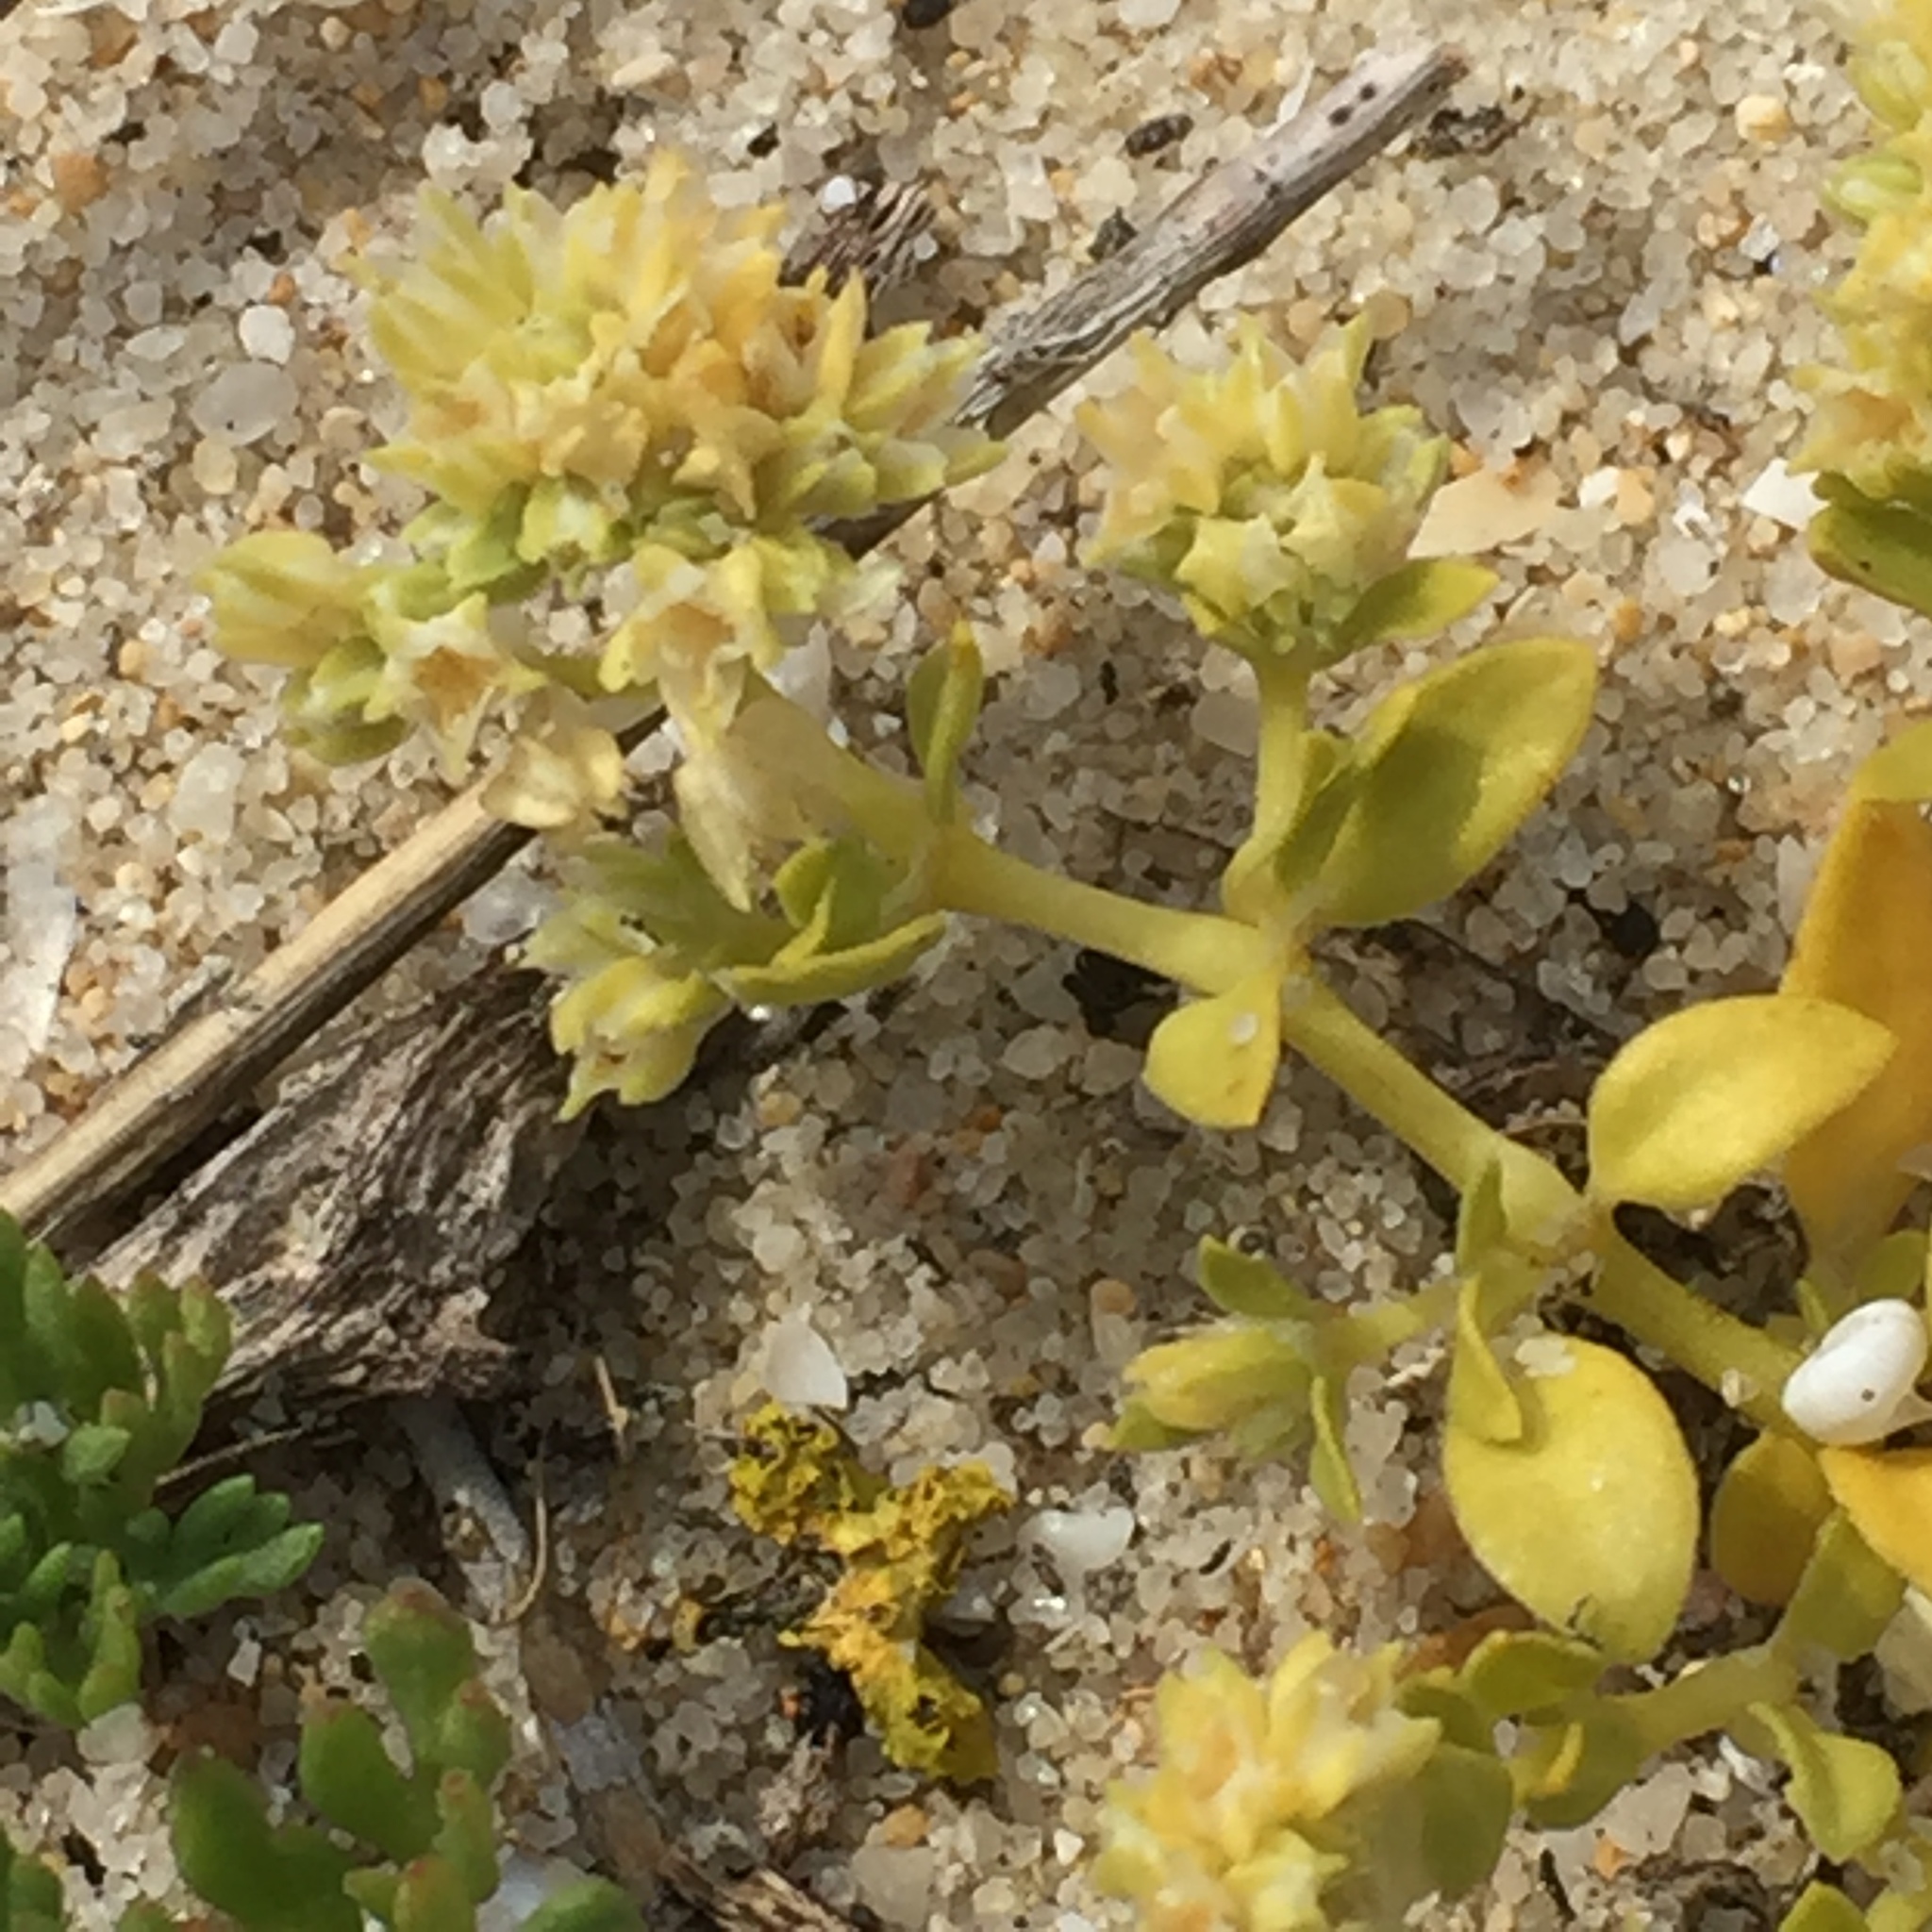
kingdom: Plantae
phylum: Tracheophyta
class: Magnoliopsida
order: Caryophyllales
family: Caryophyllaceae
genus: Polycarpon
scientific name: Polycarpon alsinifolium
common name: Fourleaf manyseed
